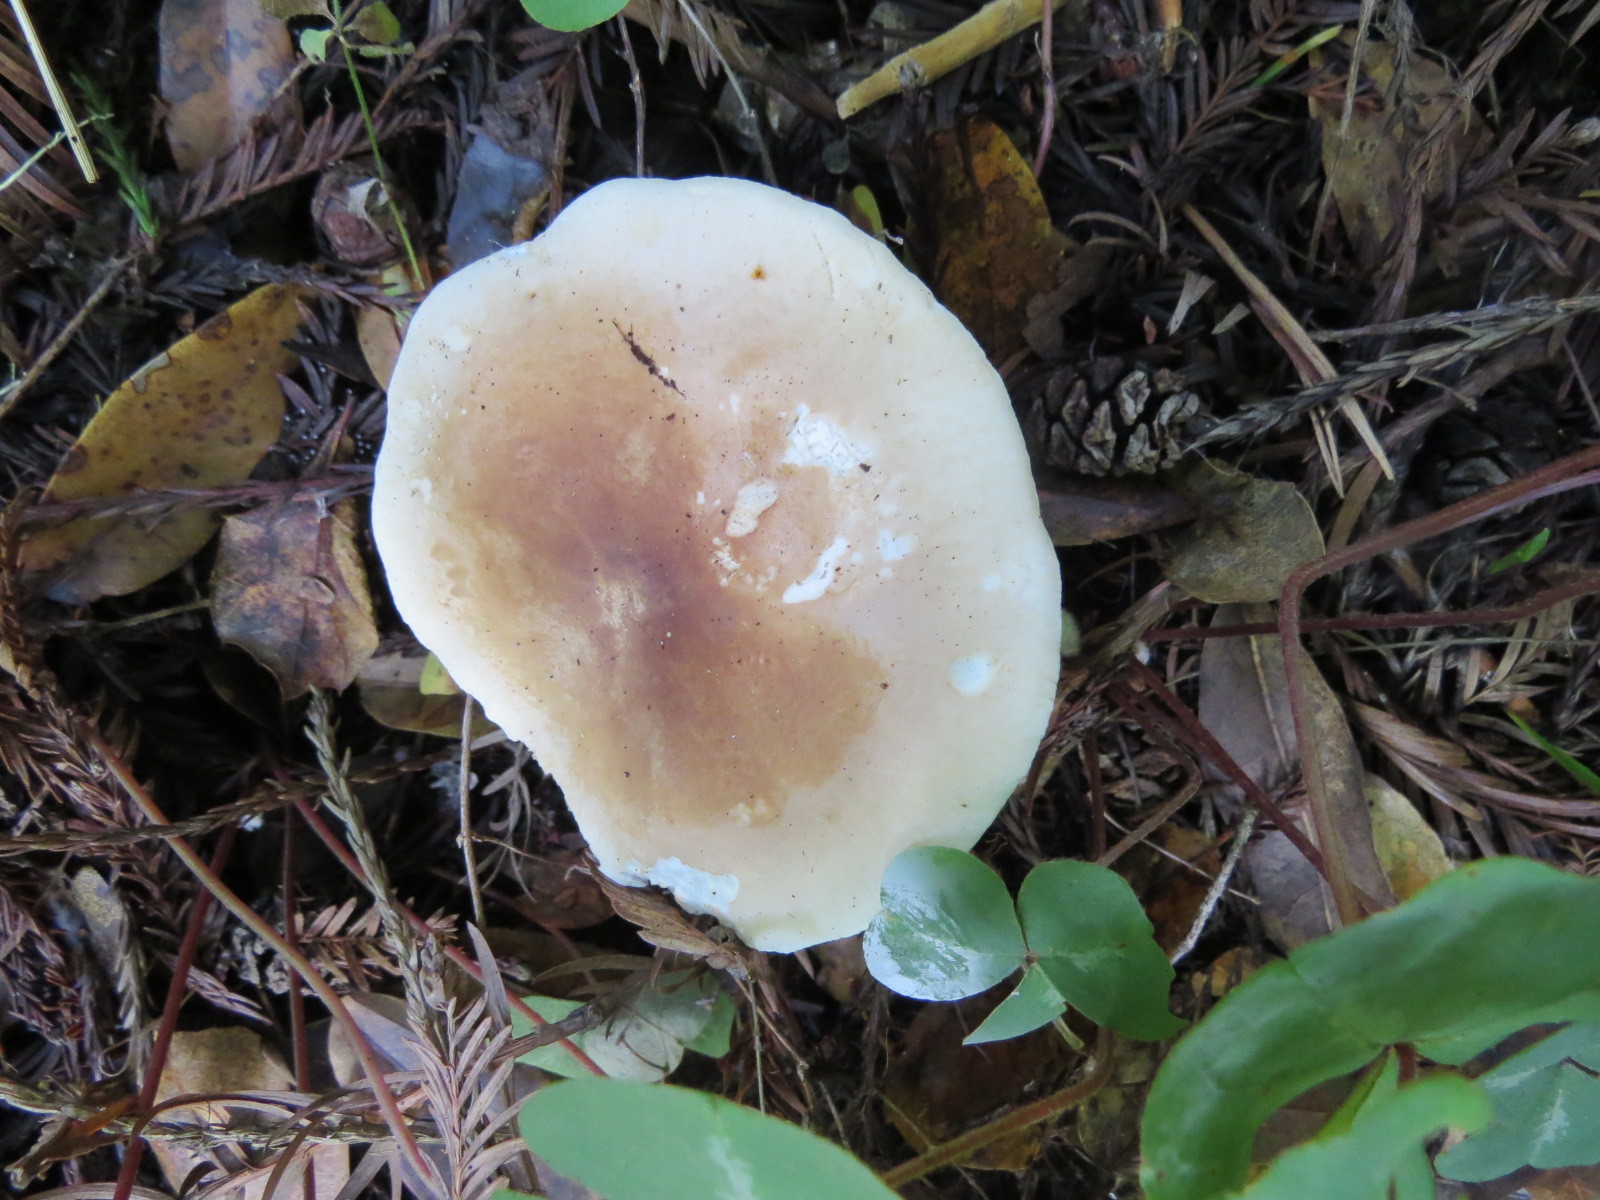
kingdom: Fungi
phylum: Basidiomycota
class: Agaricomycetes
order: Agaricales
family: Tricholomataceae
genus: Leucopaxillus
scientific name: Leucopaxillus gentianeus
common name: Bitter funnel
